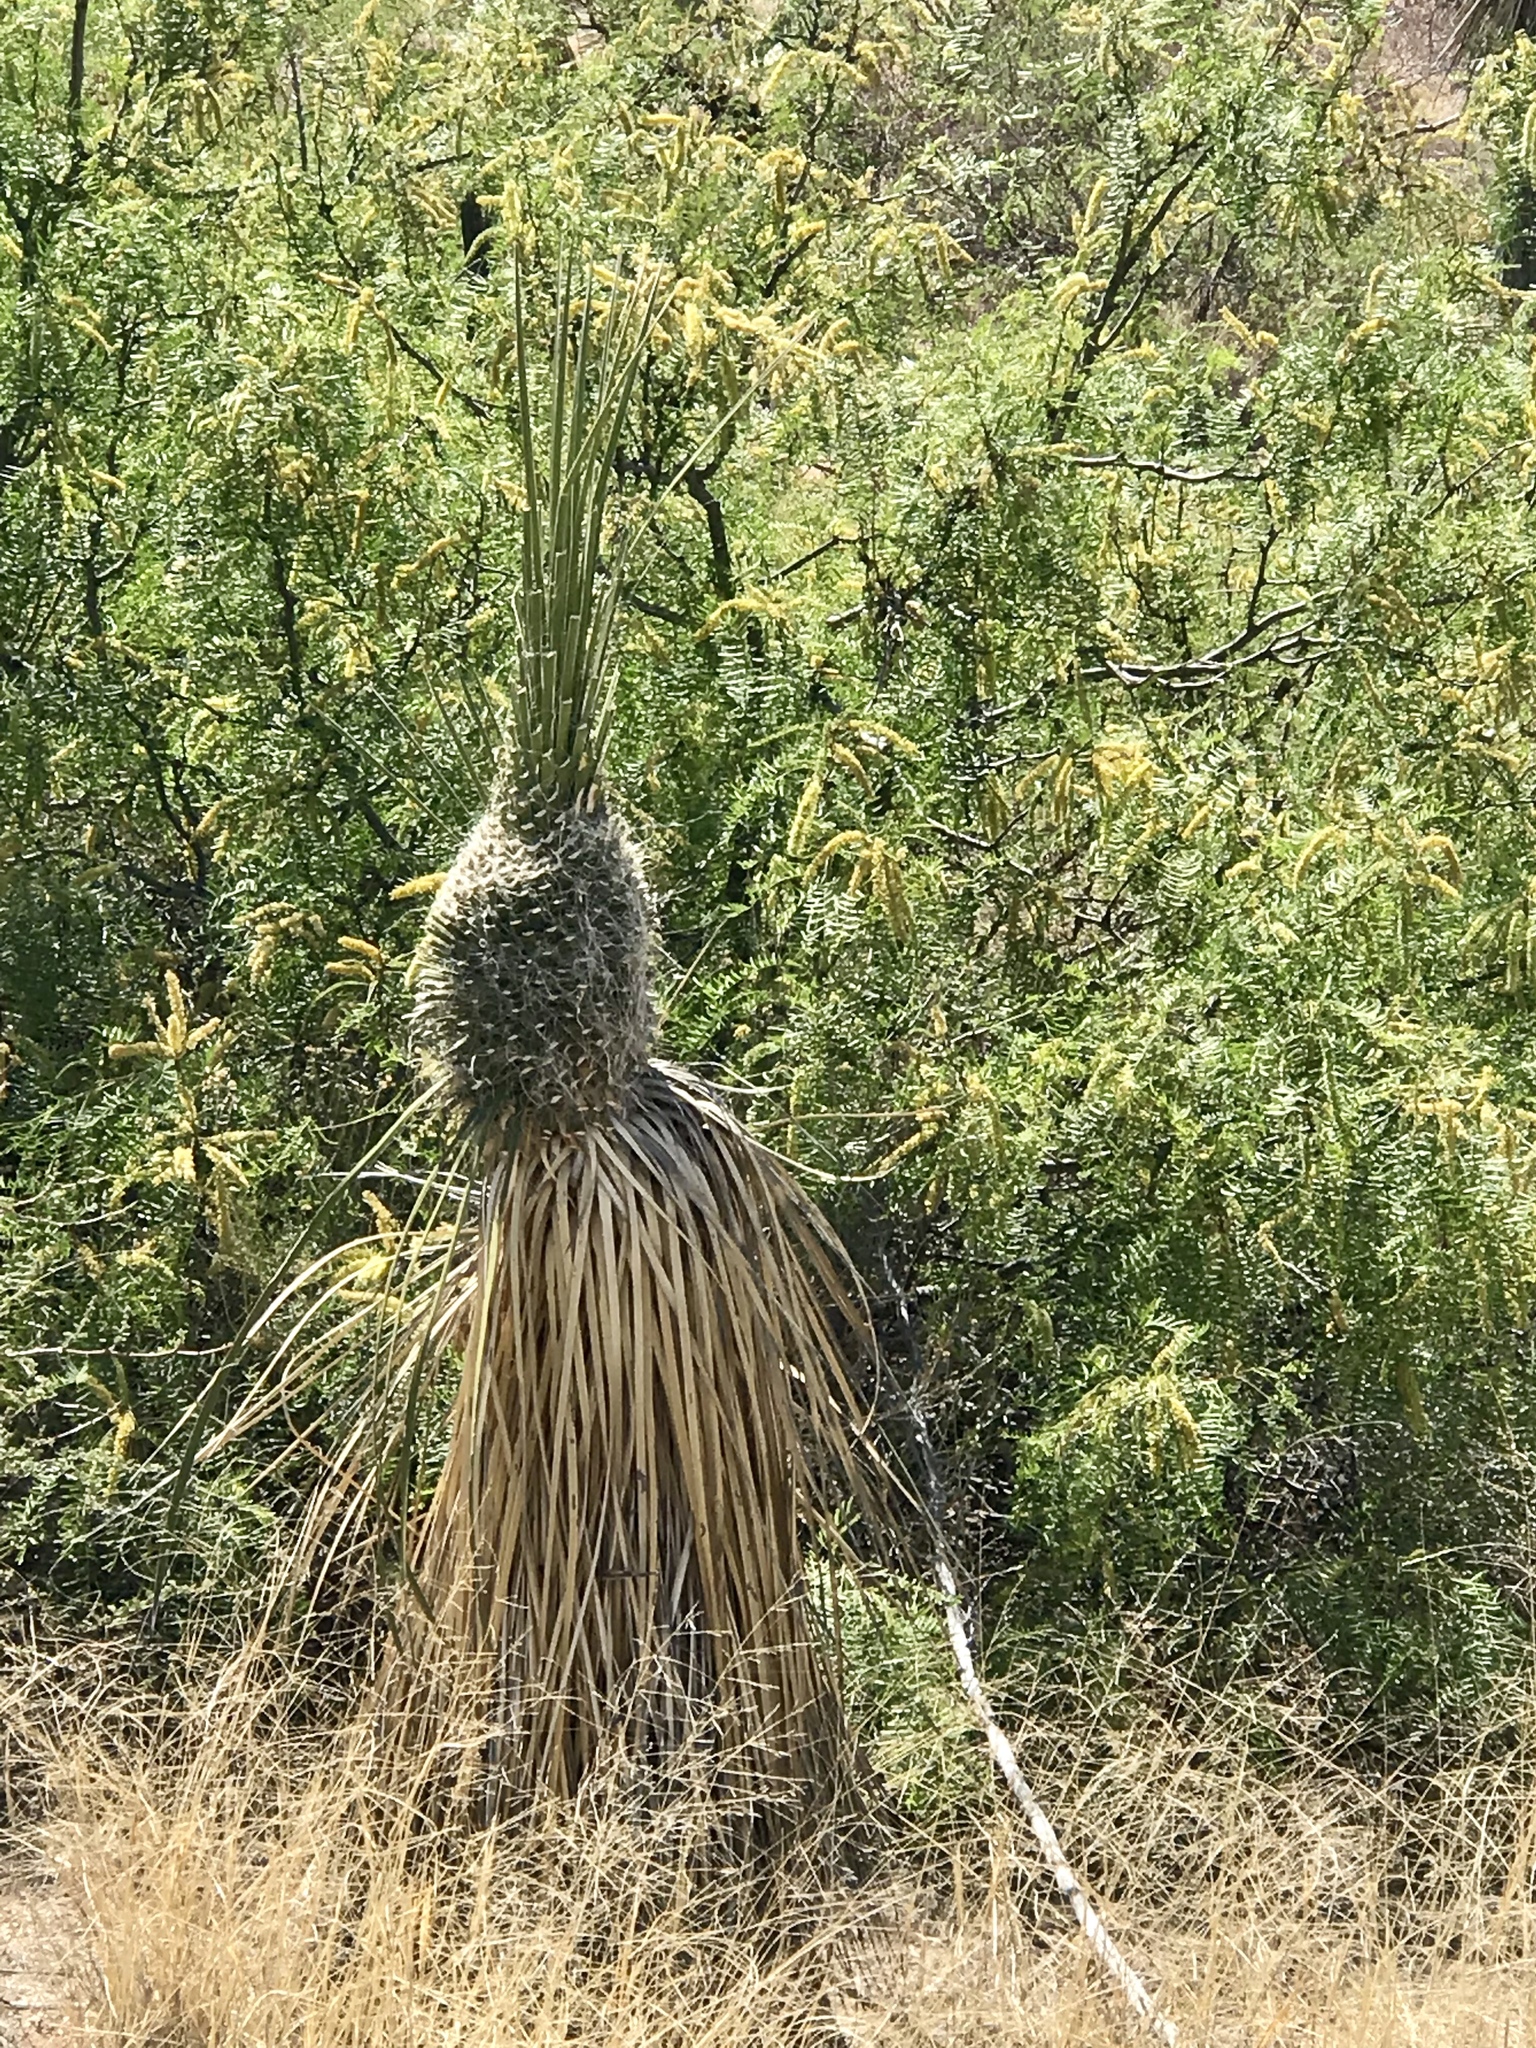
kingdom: Plantae
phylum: Tracheophyta
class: Liliopsida
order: Asparagales
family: Asparagaceae
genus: Yucca
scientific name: Yucca elata
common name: Palmella
